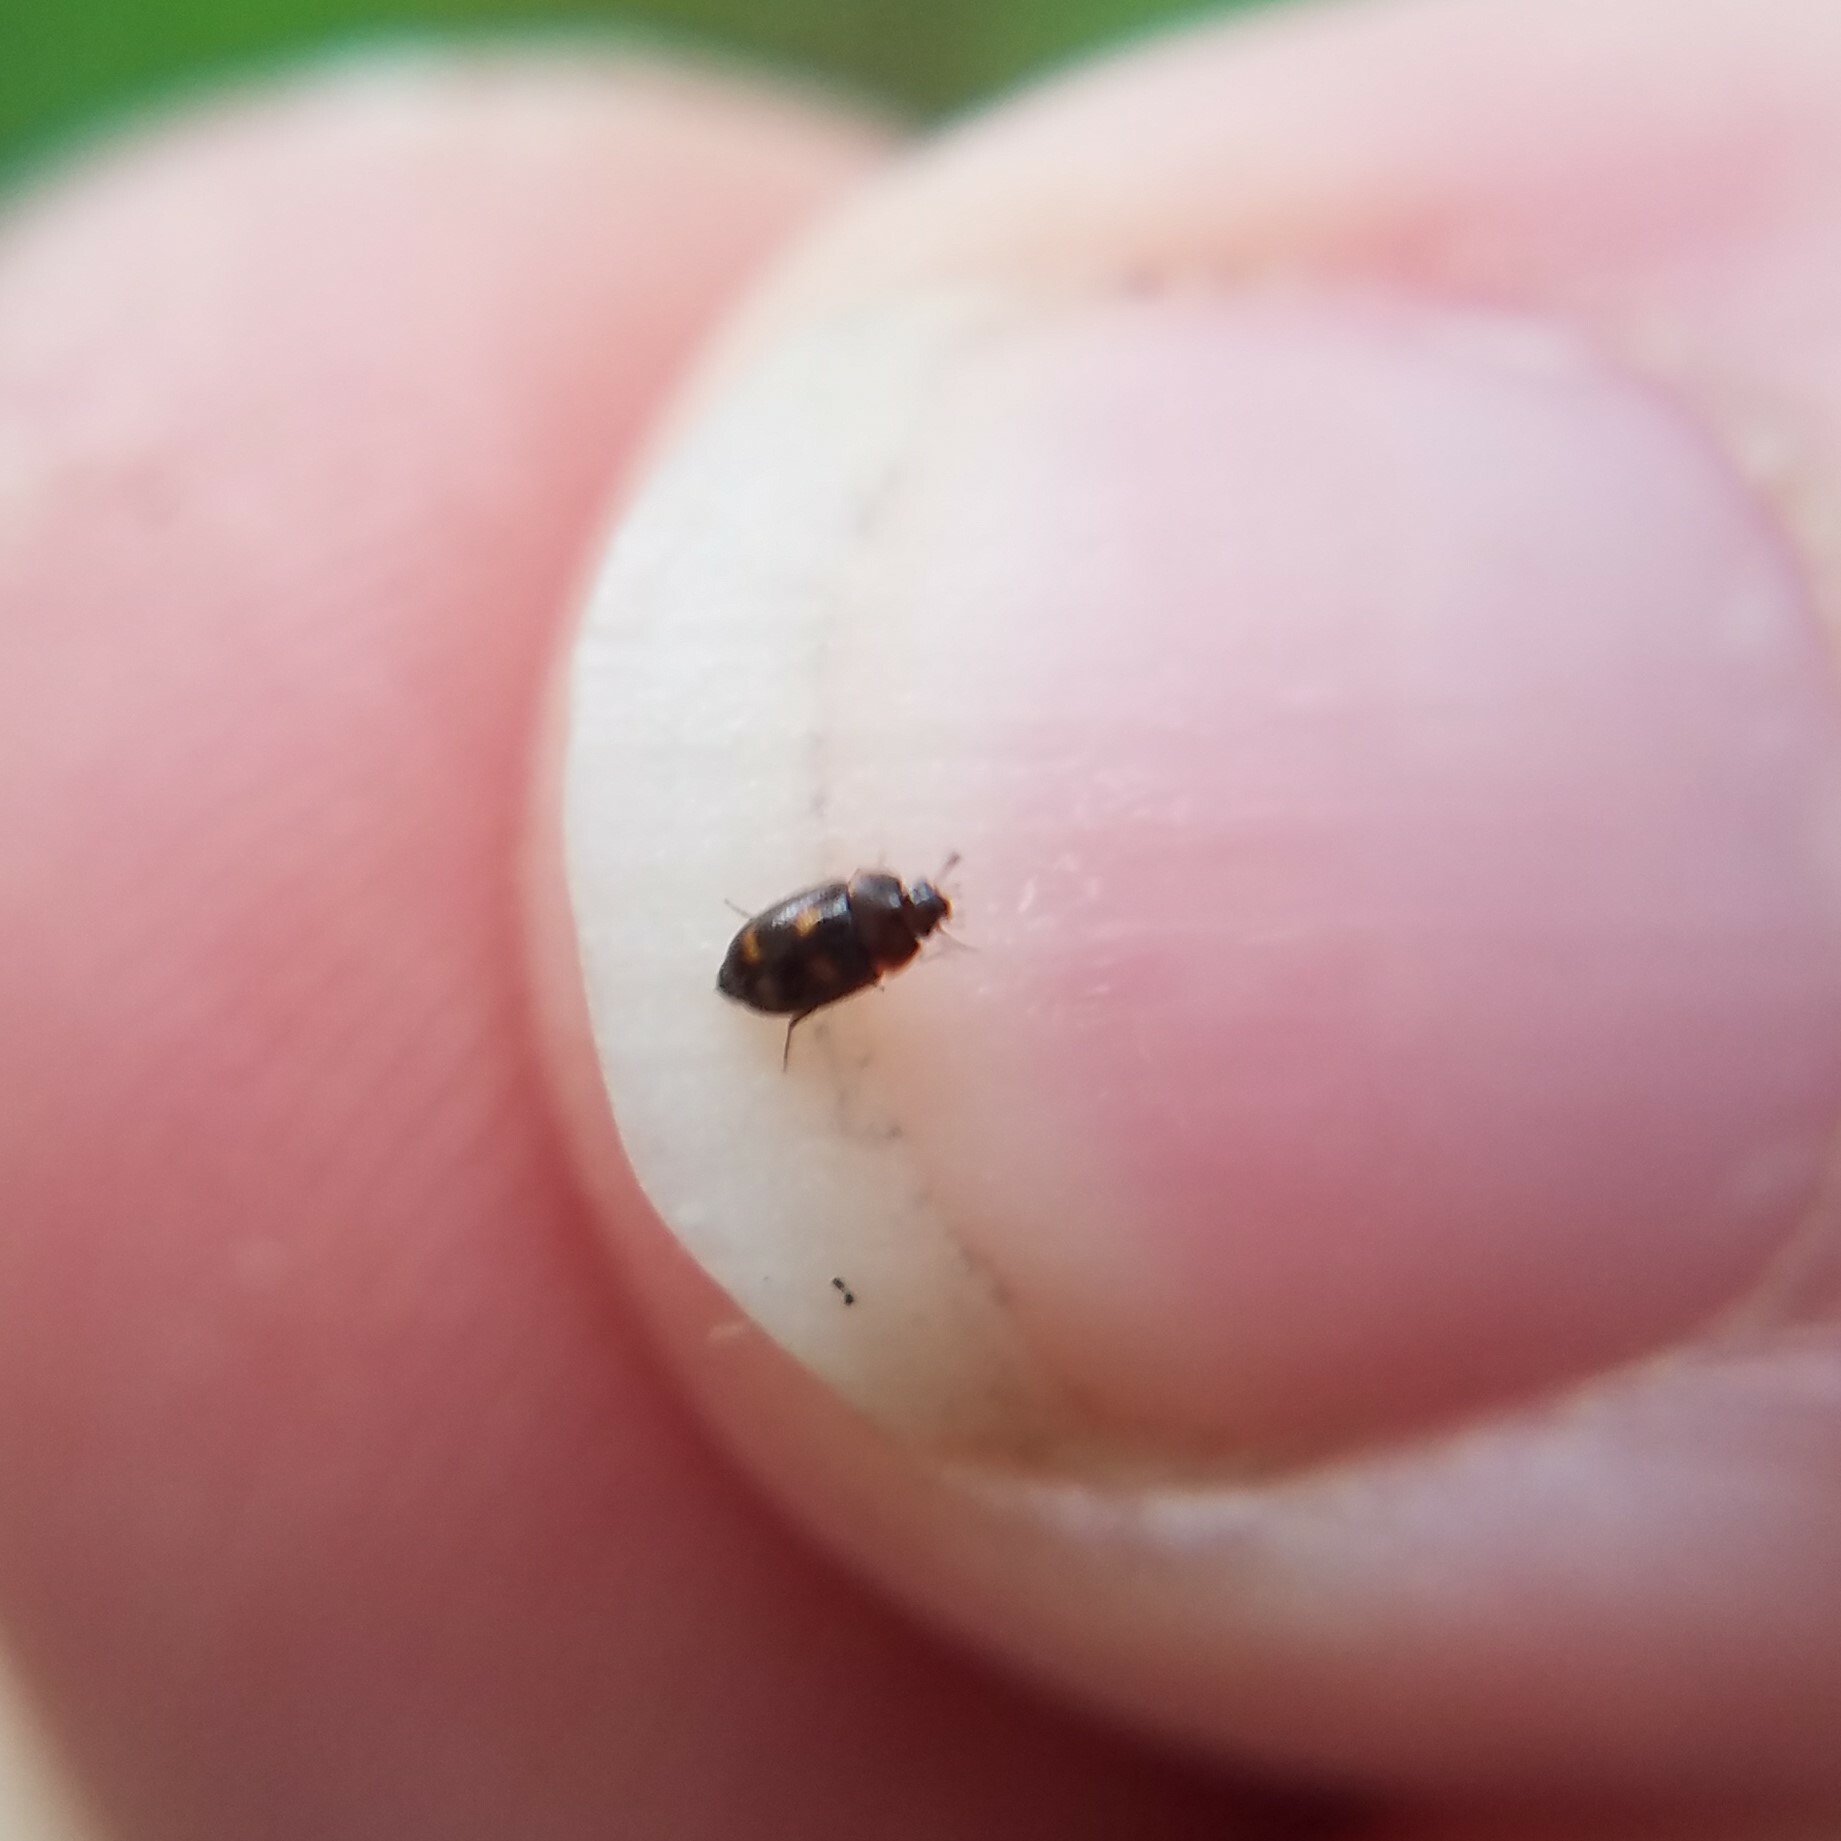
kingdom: Animalia
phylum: Arthropoda
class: Insecta
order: Coleoptera
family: Mycetophagidae
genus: Litargus
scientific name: Litargus tetraspilotus
